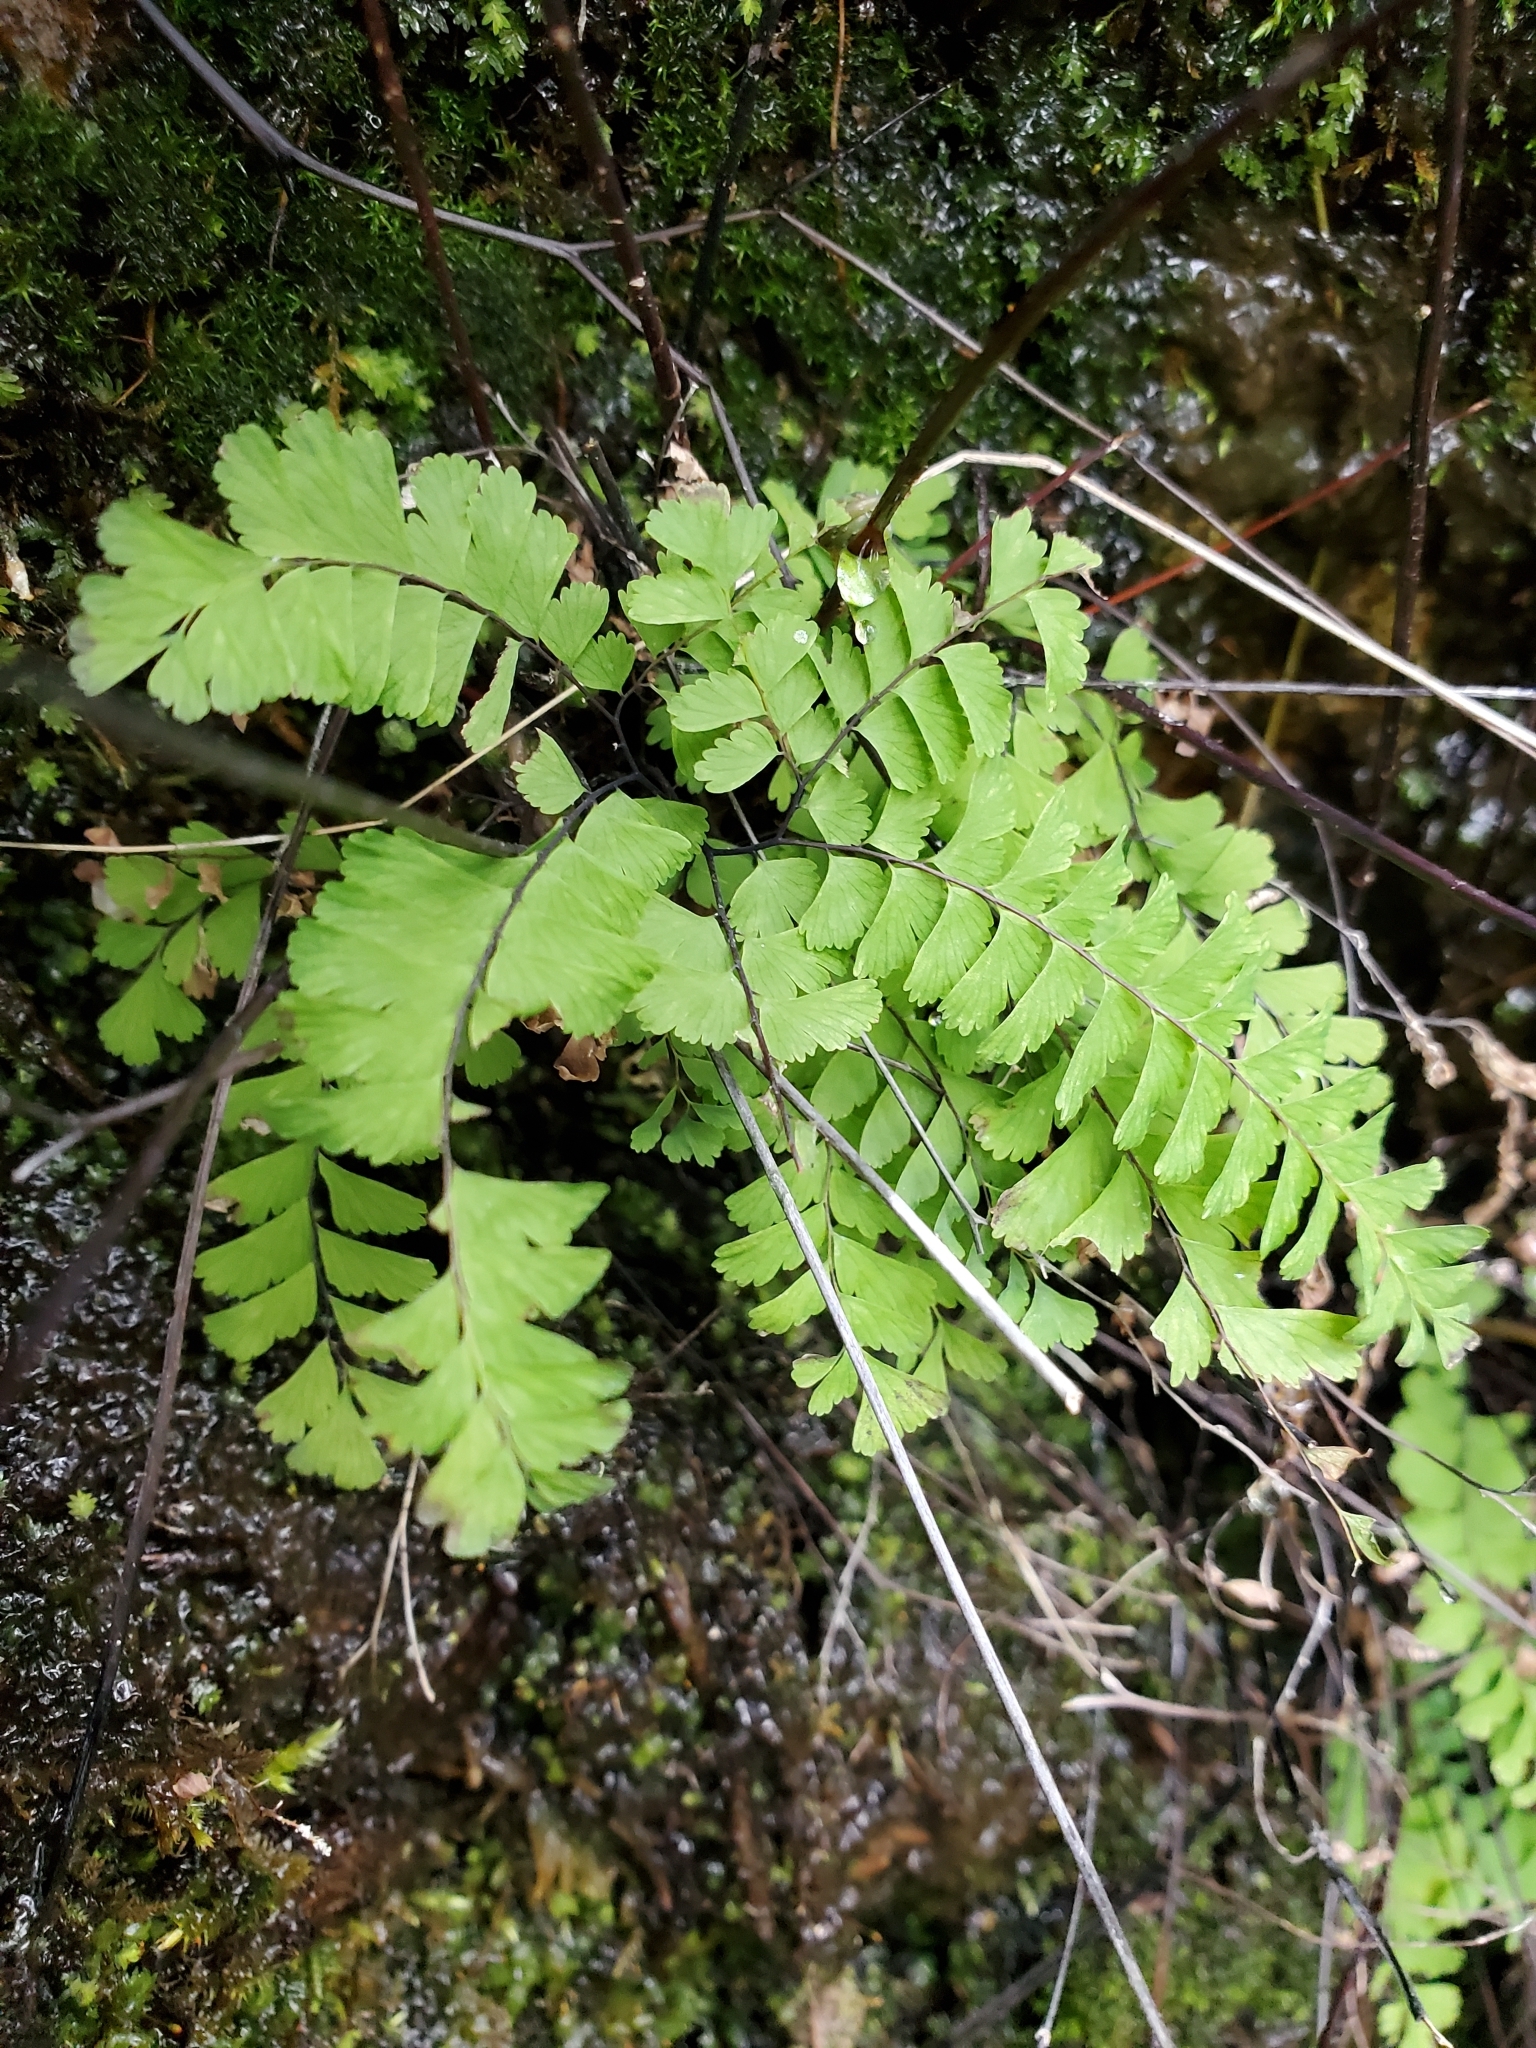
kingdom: Plantae
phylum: Tracheophyta
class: Polypodiopsida
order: Polypodiales
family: Pteridaceae
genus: Adiantum
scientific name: Adiantum aleuticum
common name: Aleutian maidenhair fern
